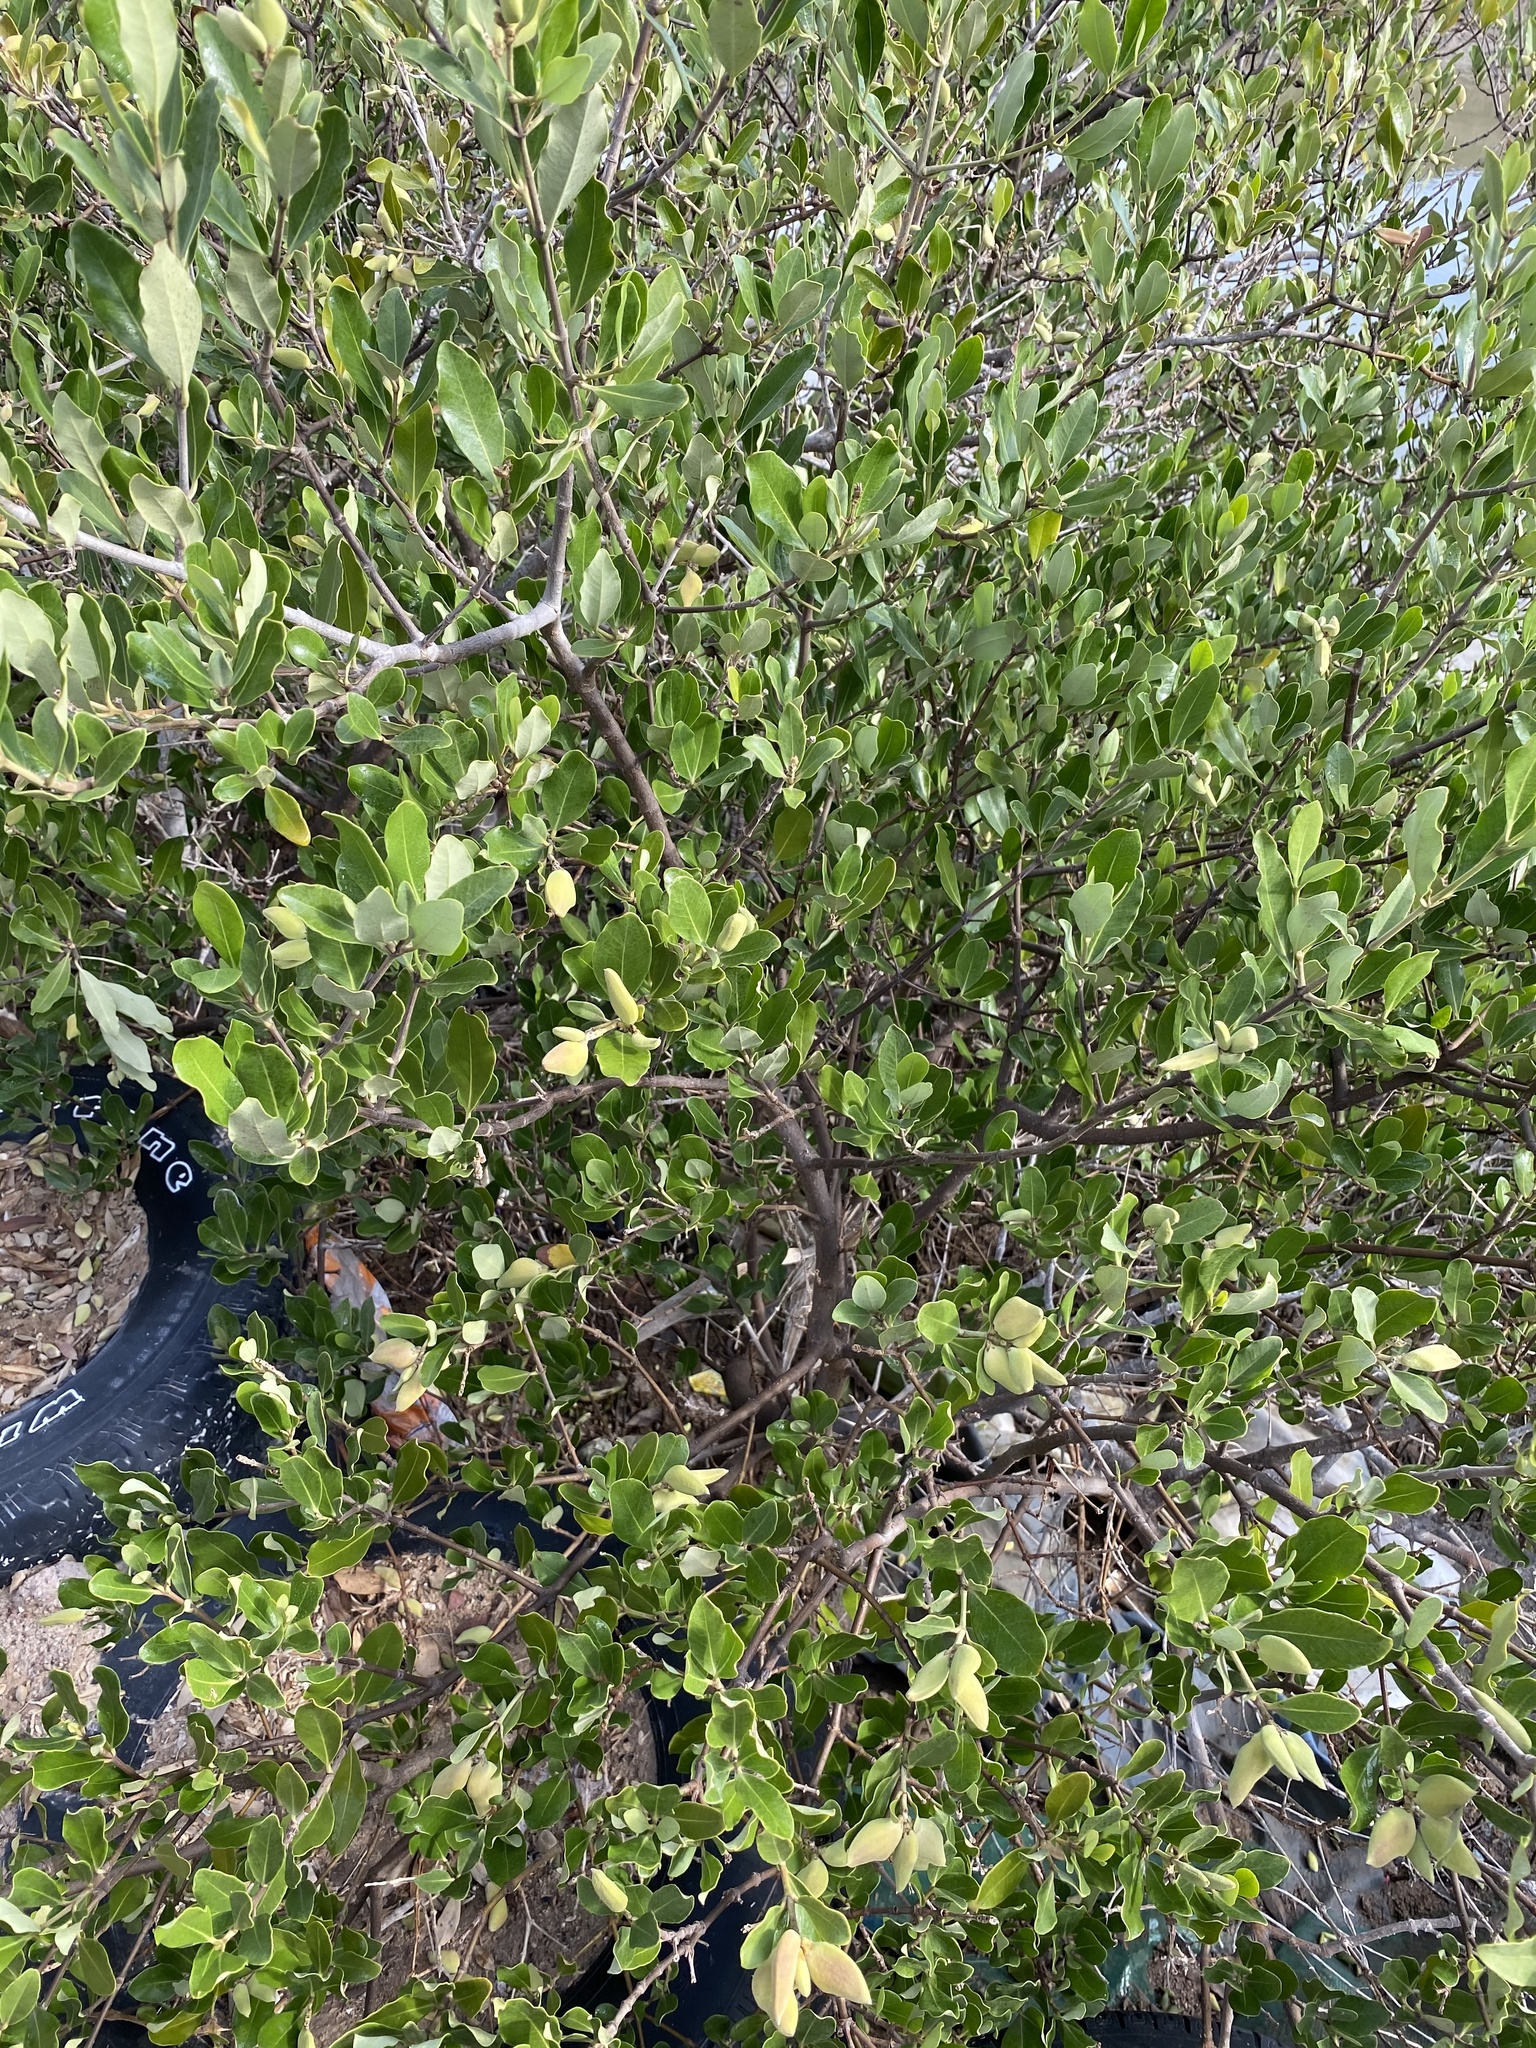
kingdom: Plantae
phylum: Tracheophyta
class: Magnoliopsida
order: Lamiales
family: Acanthaceae
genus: Avicennia
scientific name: Avicennia germinans
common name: Black mangrove
